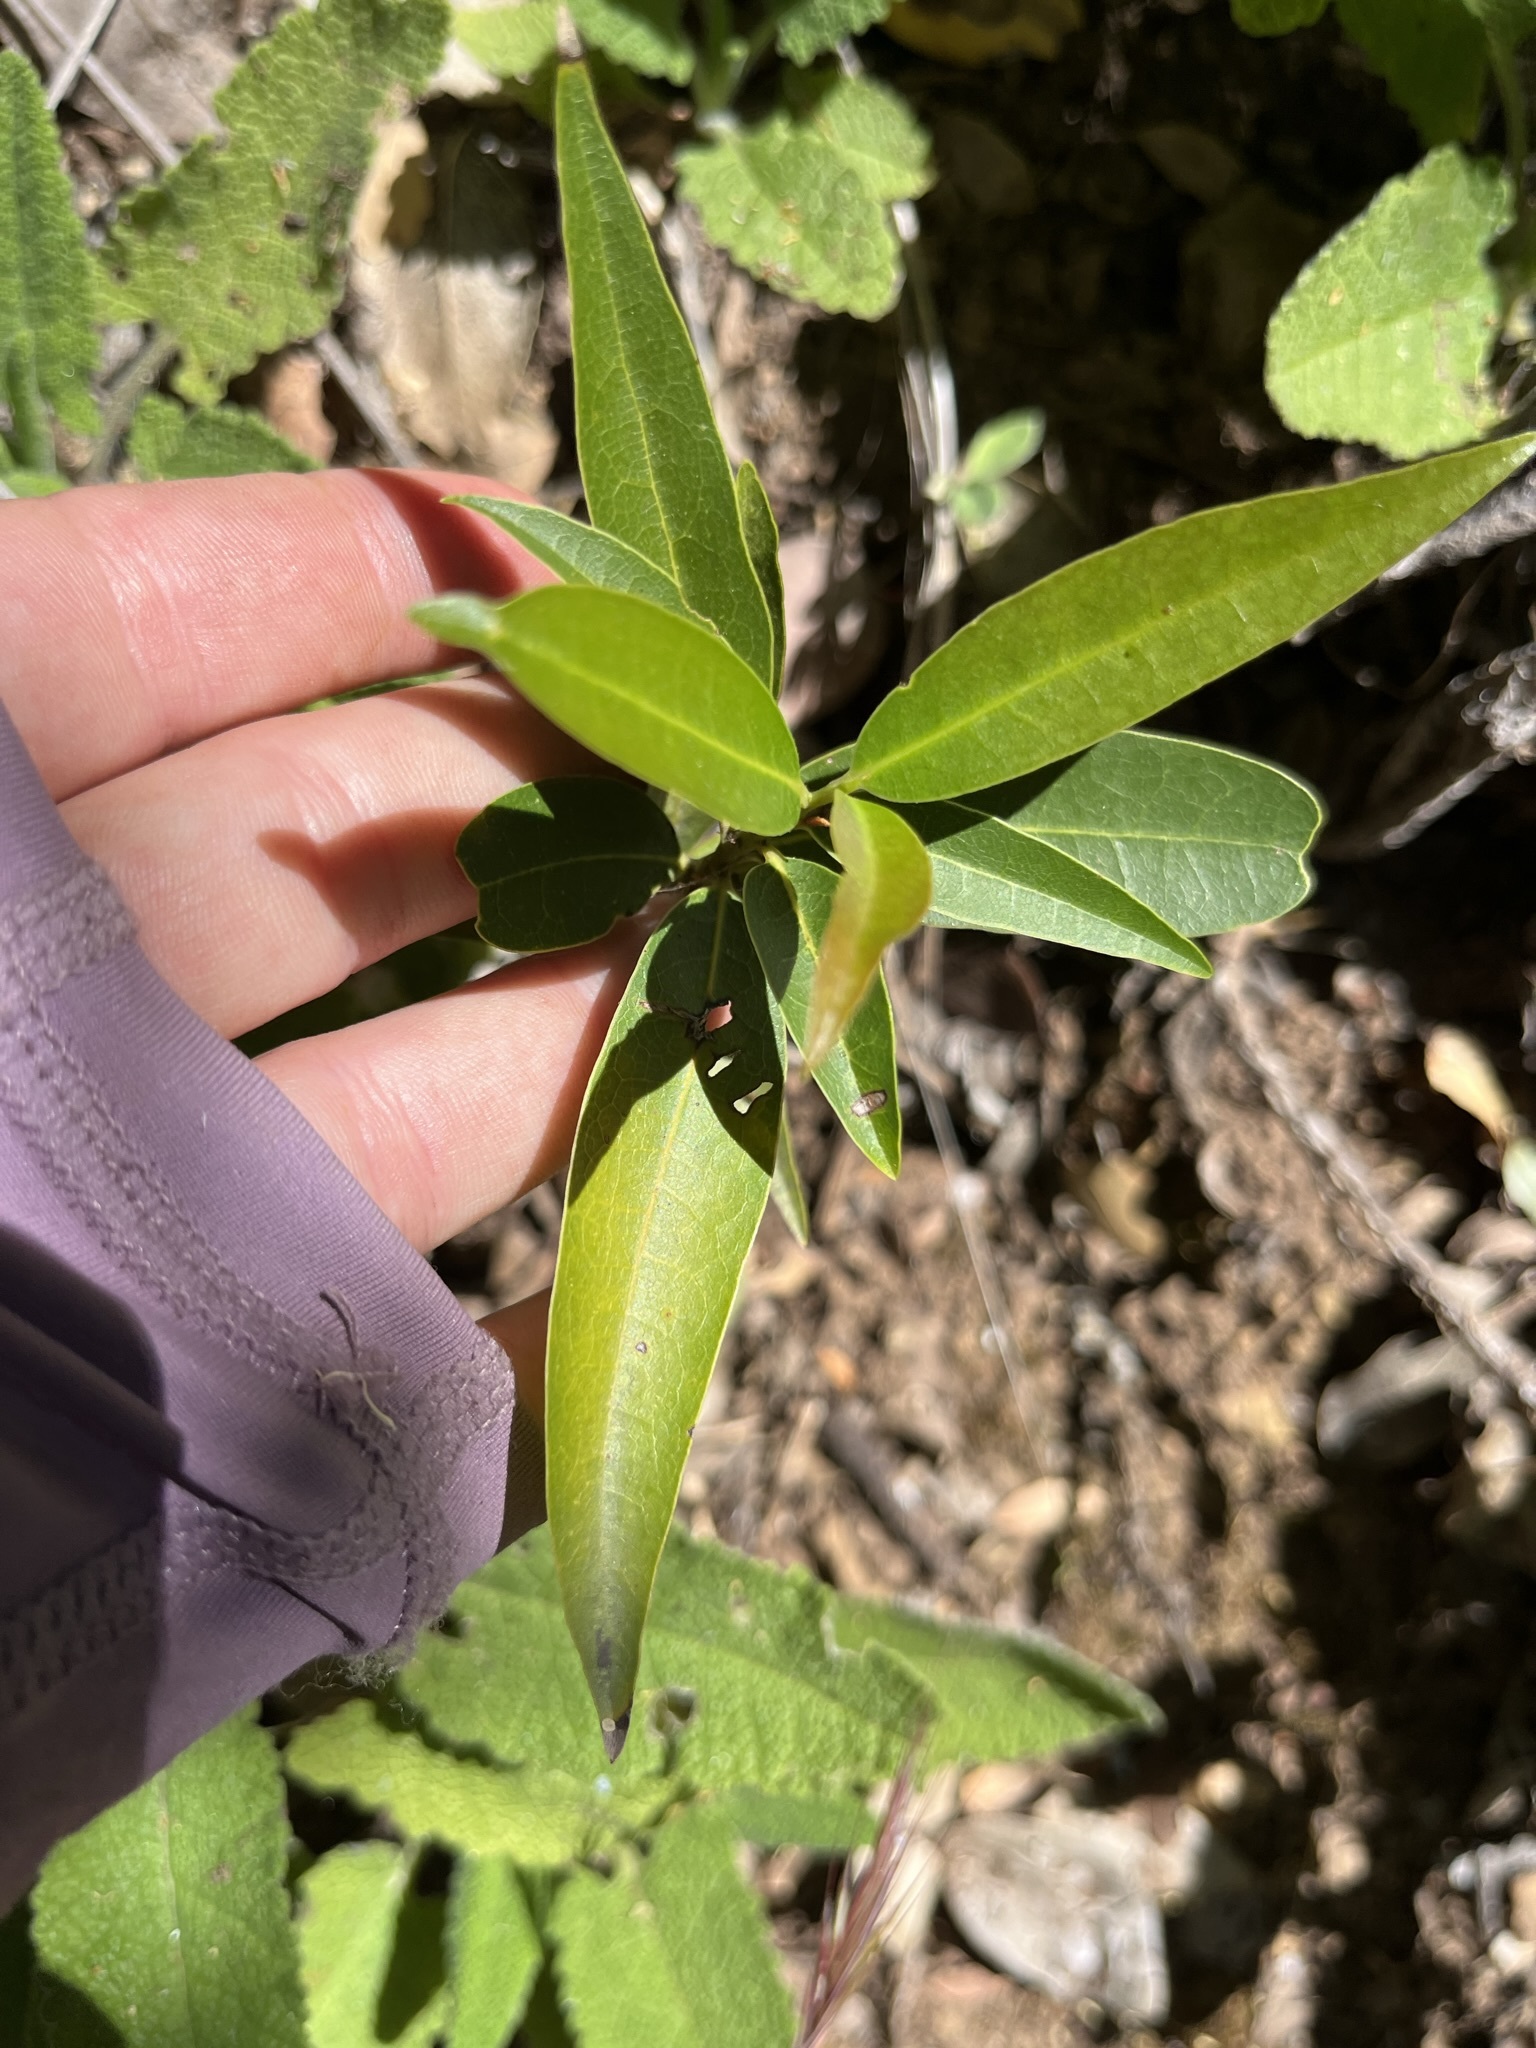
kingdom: Plantae
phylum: Tracheophyta
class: Magnoliopsida
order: Laurales
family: Lauraceae
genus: Umbellularia
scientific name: Umbellularia californica
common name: California bay
